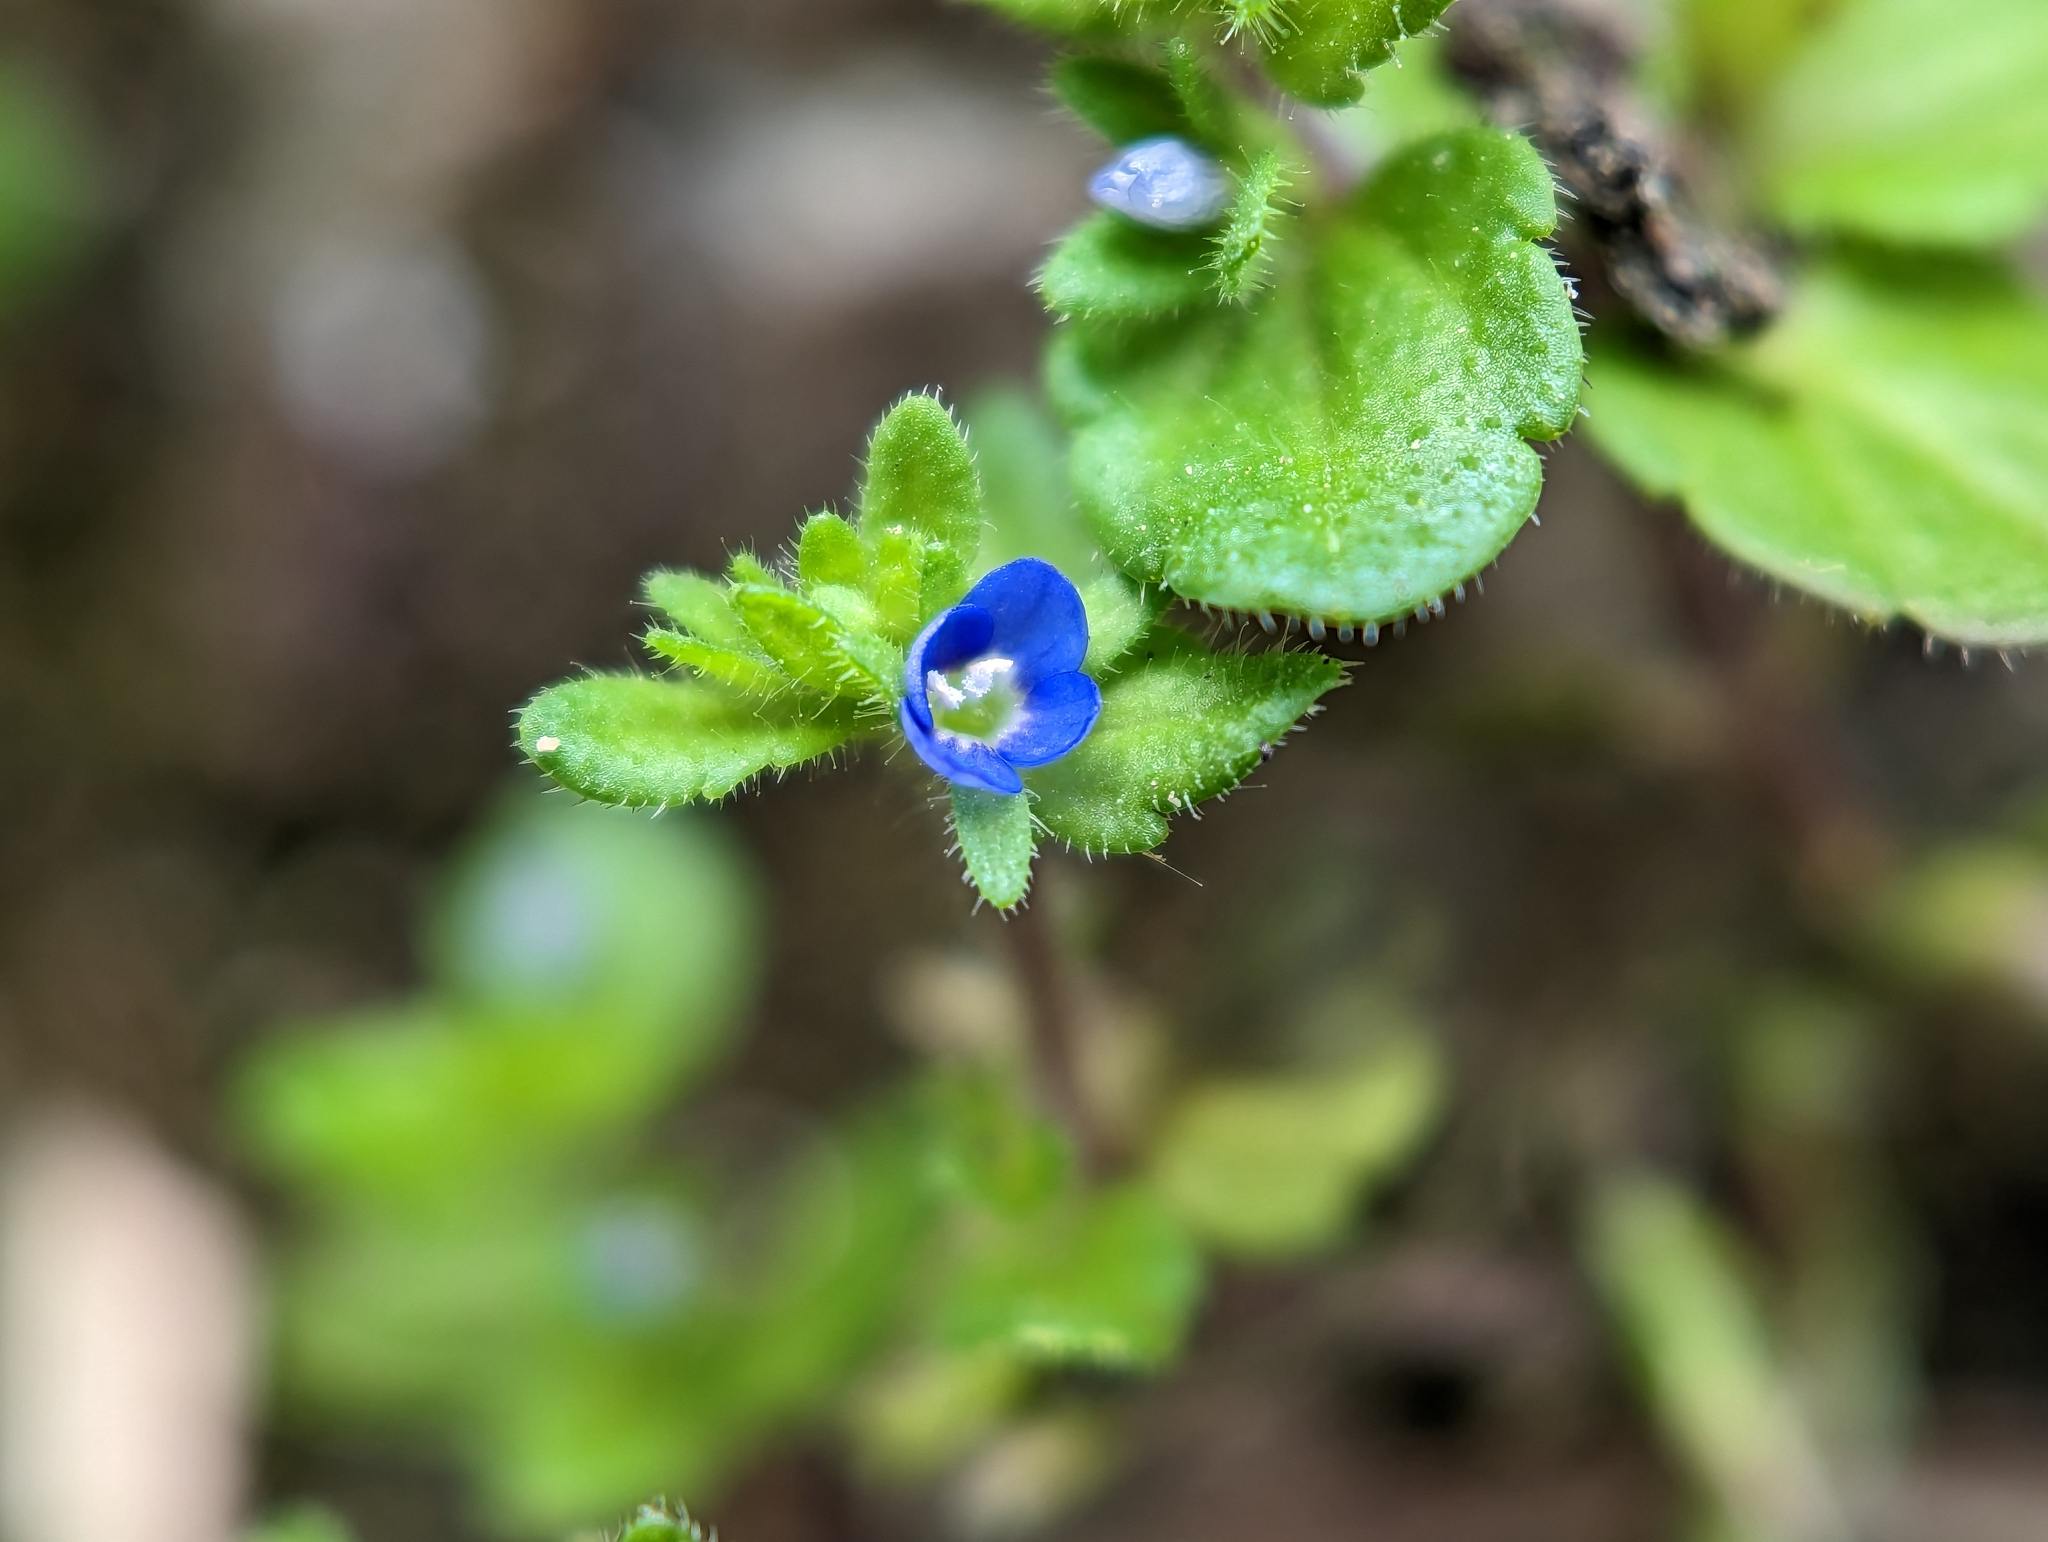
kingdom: Plantae
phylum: Tracheophyta
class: Magnoliopsida
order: Lamiales
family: Plantaginaceae
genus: Veronica
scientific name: Veronica arvensis
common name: Corn speedwell
